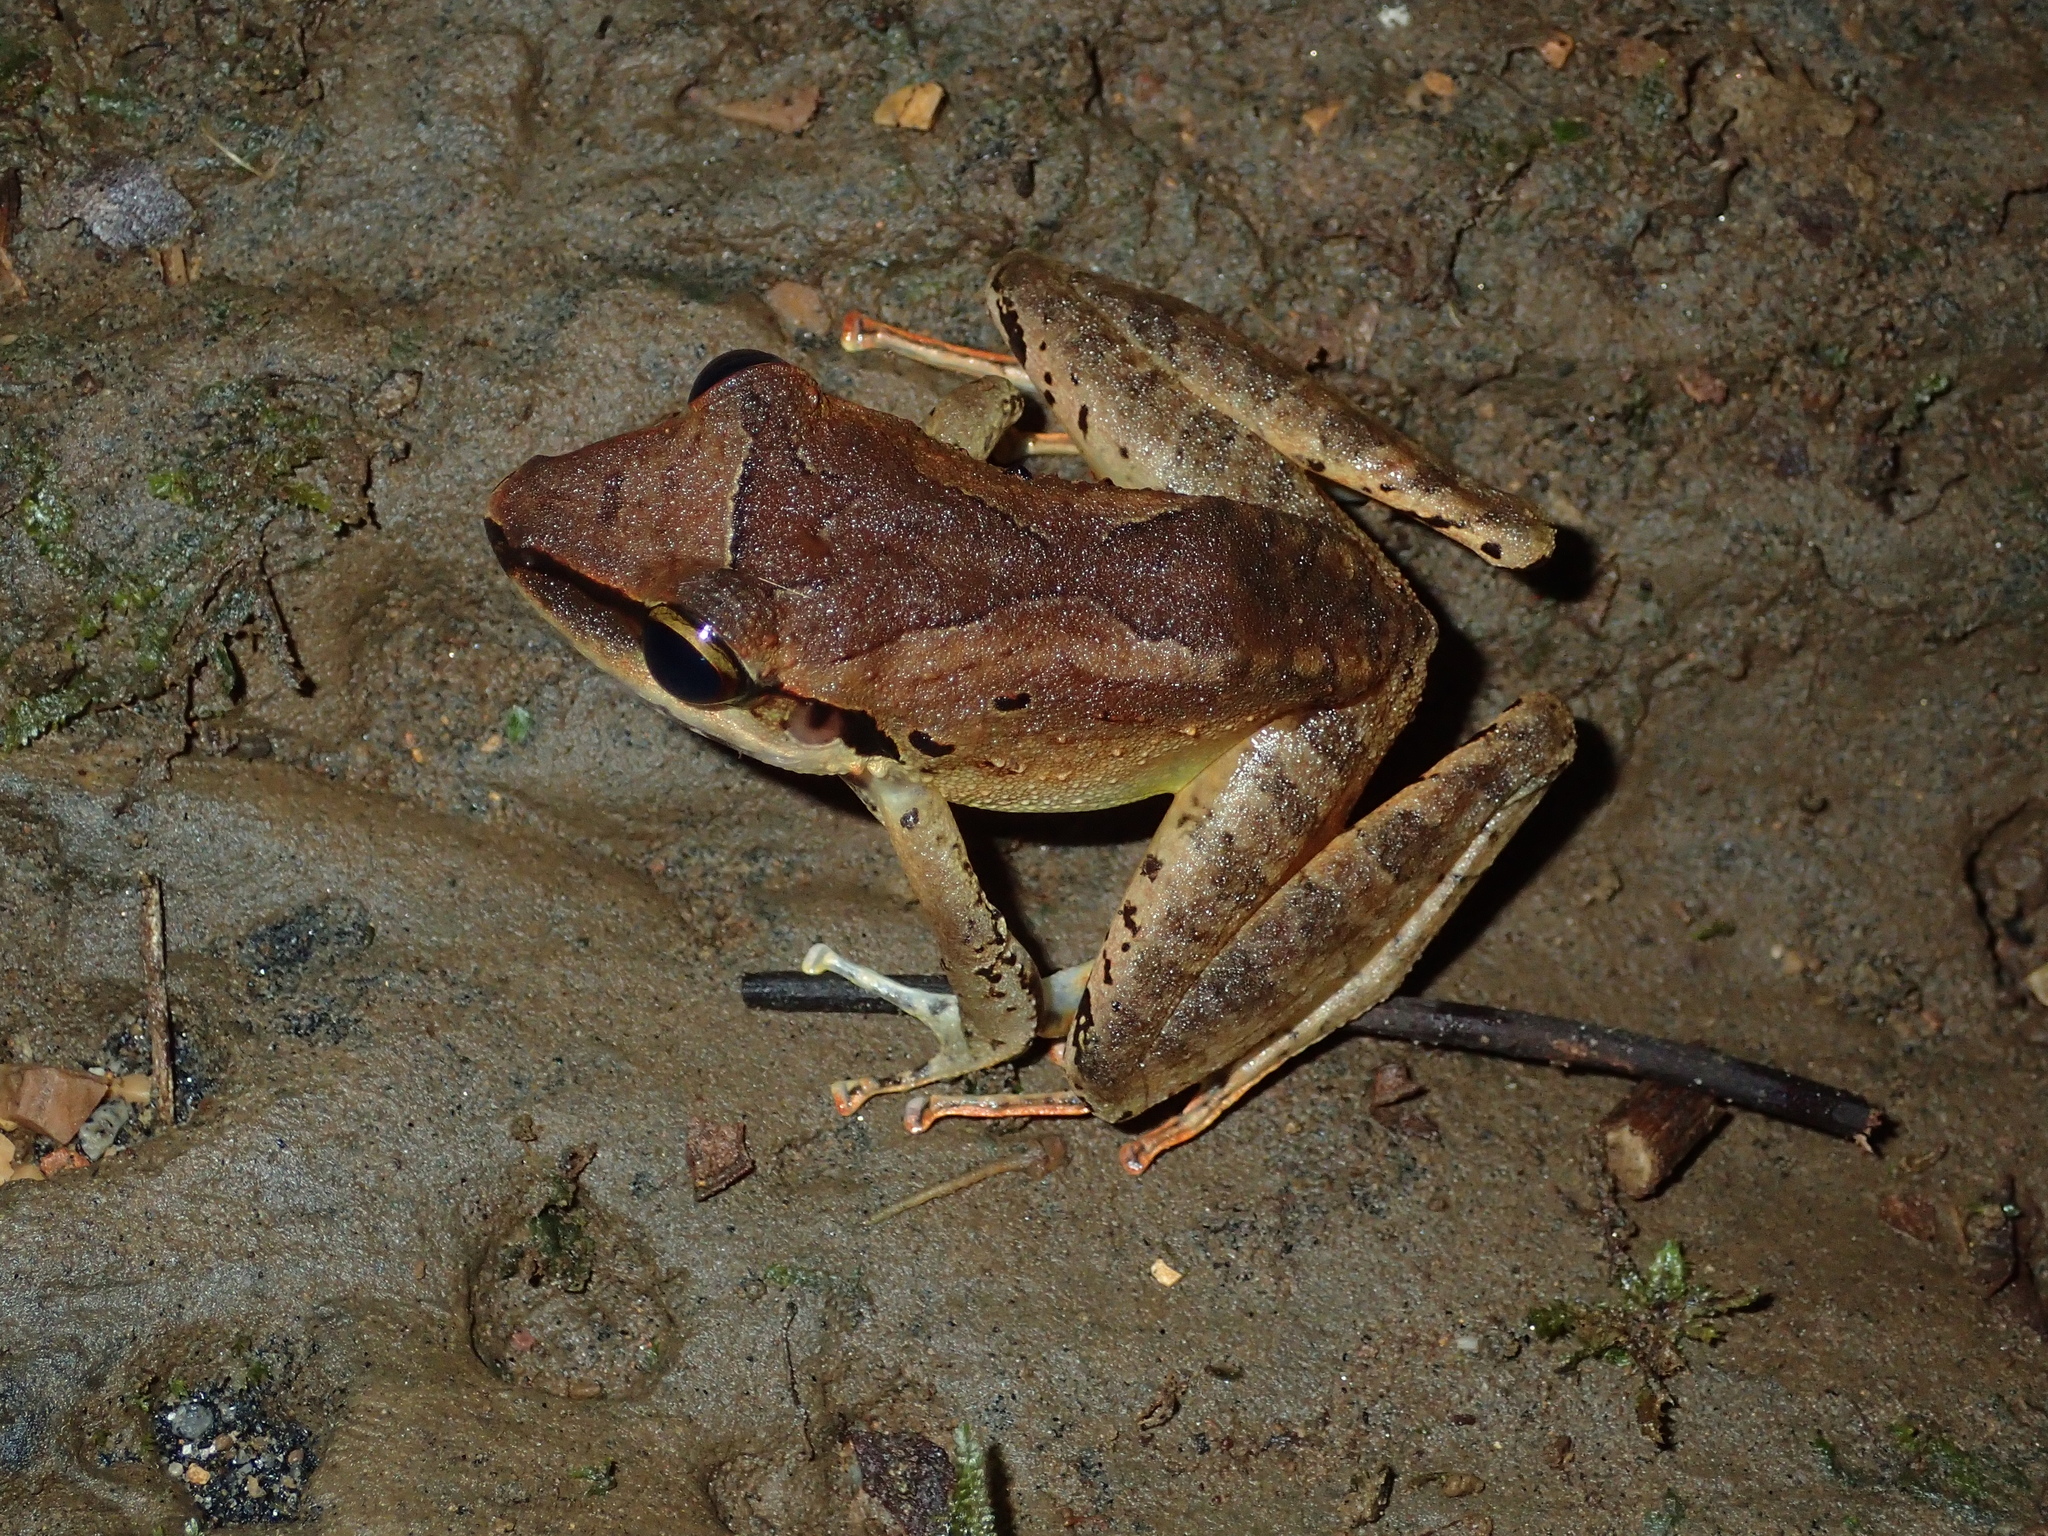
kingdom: Animalia
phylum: Chordata
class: Amphibia
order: Anura
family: Craugastoridae
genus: Craugastor
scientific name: Craugastor longirostris
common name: Longsnout robber frog
